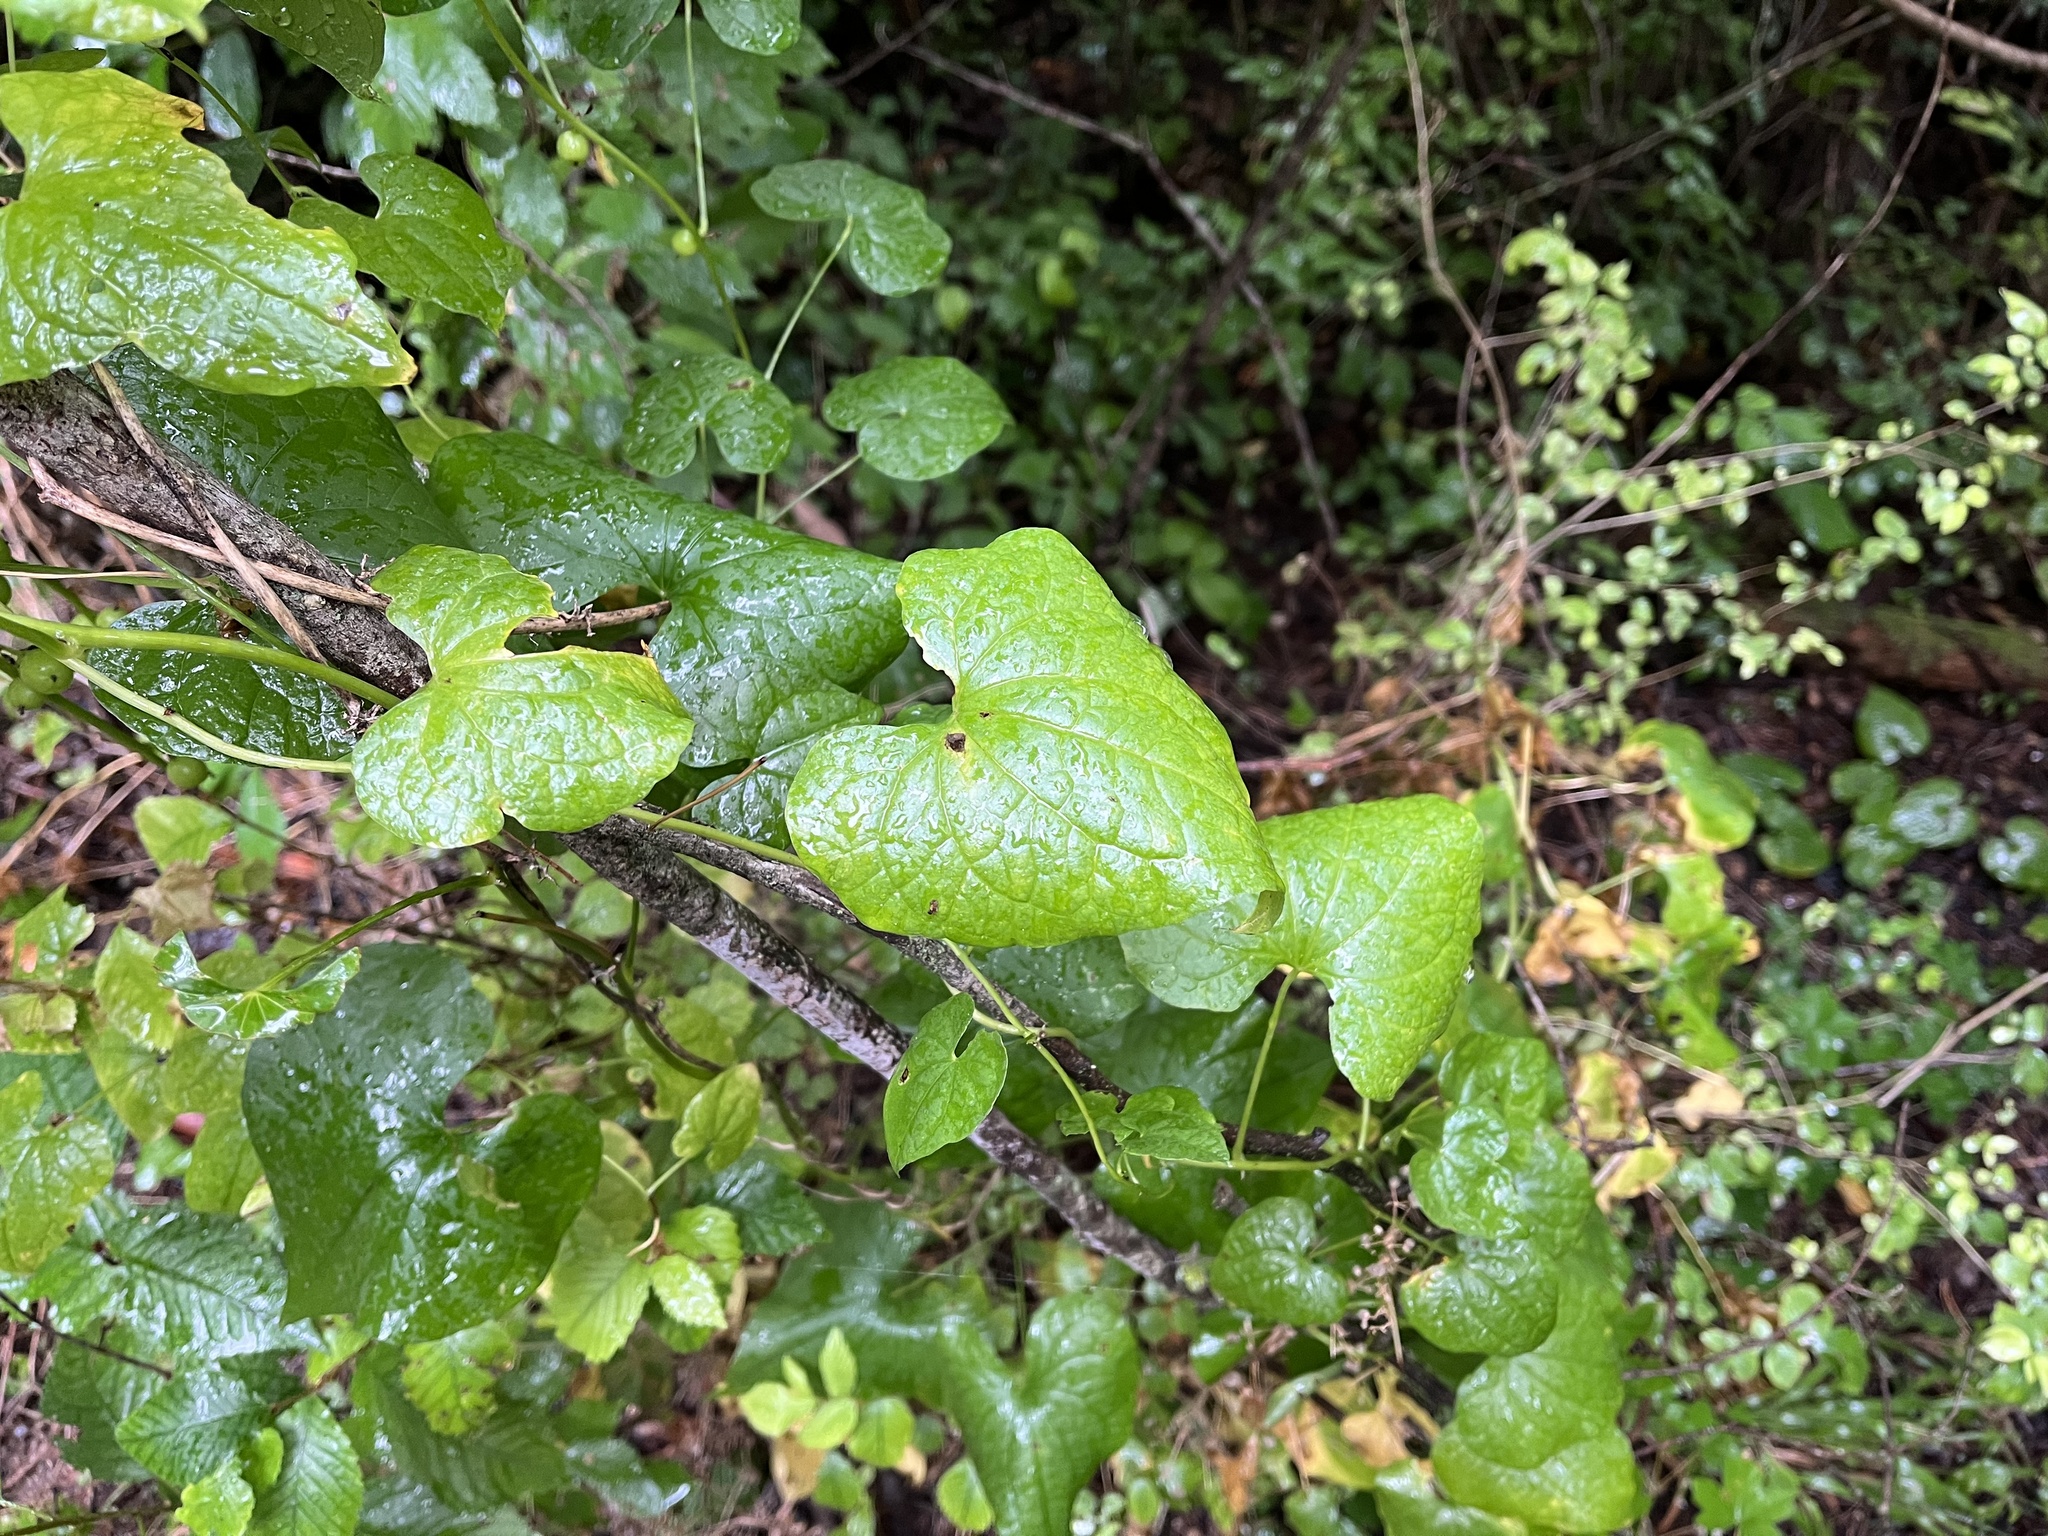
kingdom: Plantae
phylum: Tracheophyta
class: Liliopsida
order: Dioscoreales
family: Dioscoreaceae
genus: Dioscorea
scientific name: Dioscorea communis
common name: Black-bindweed
